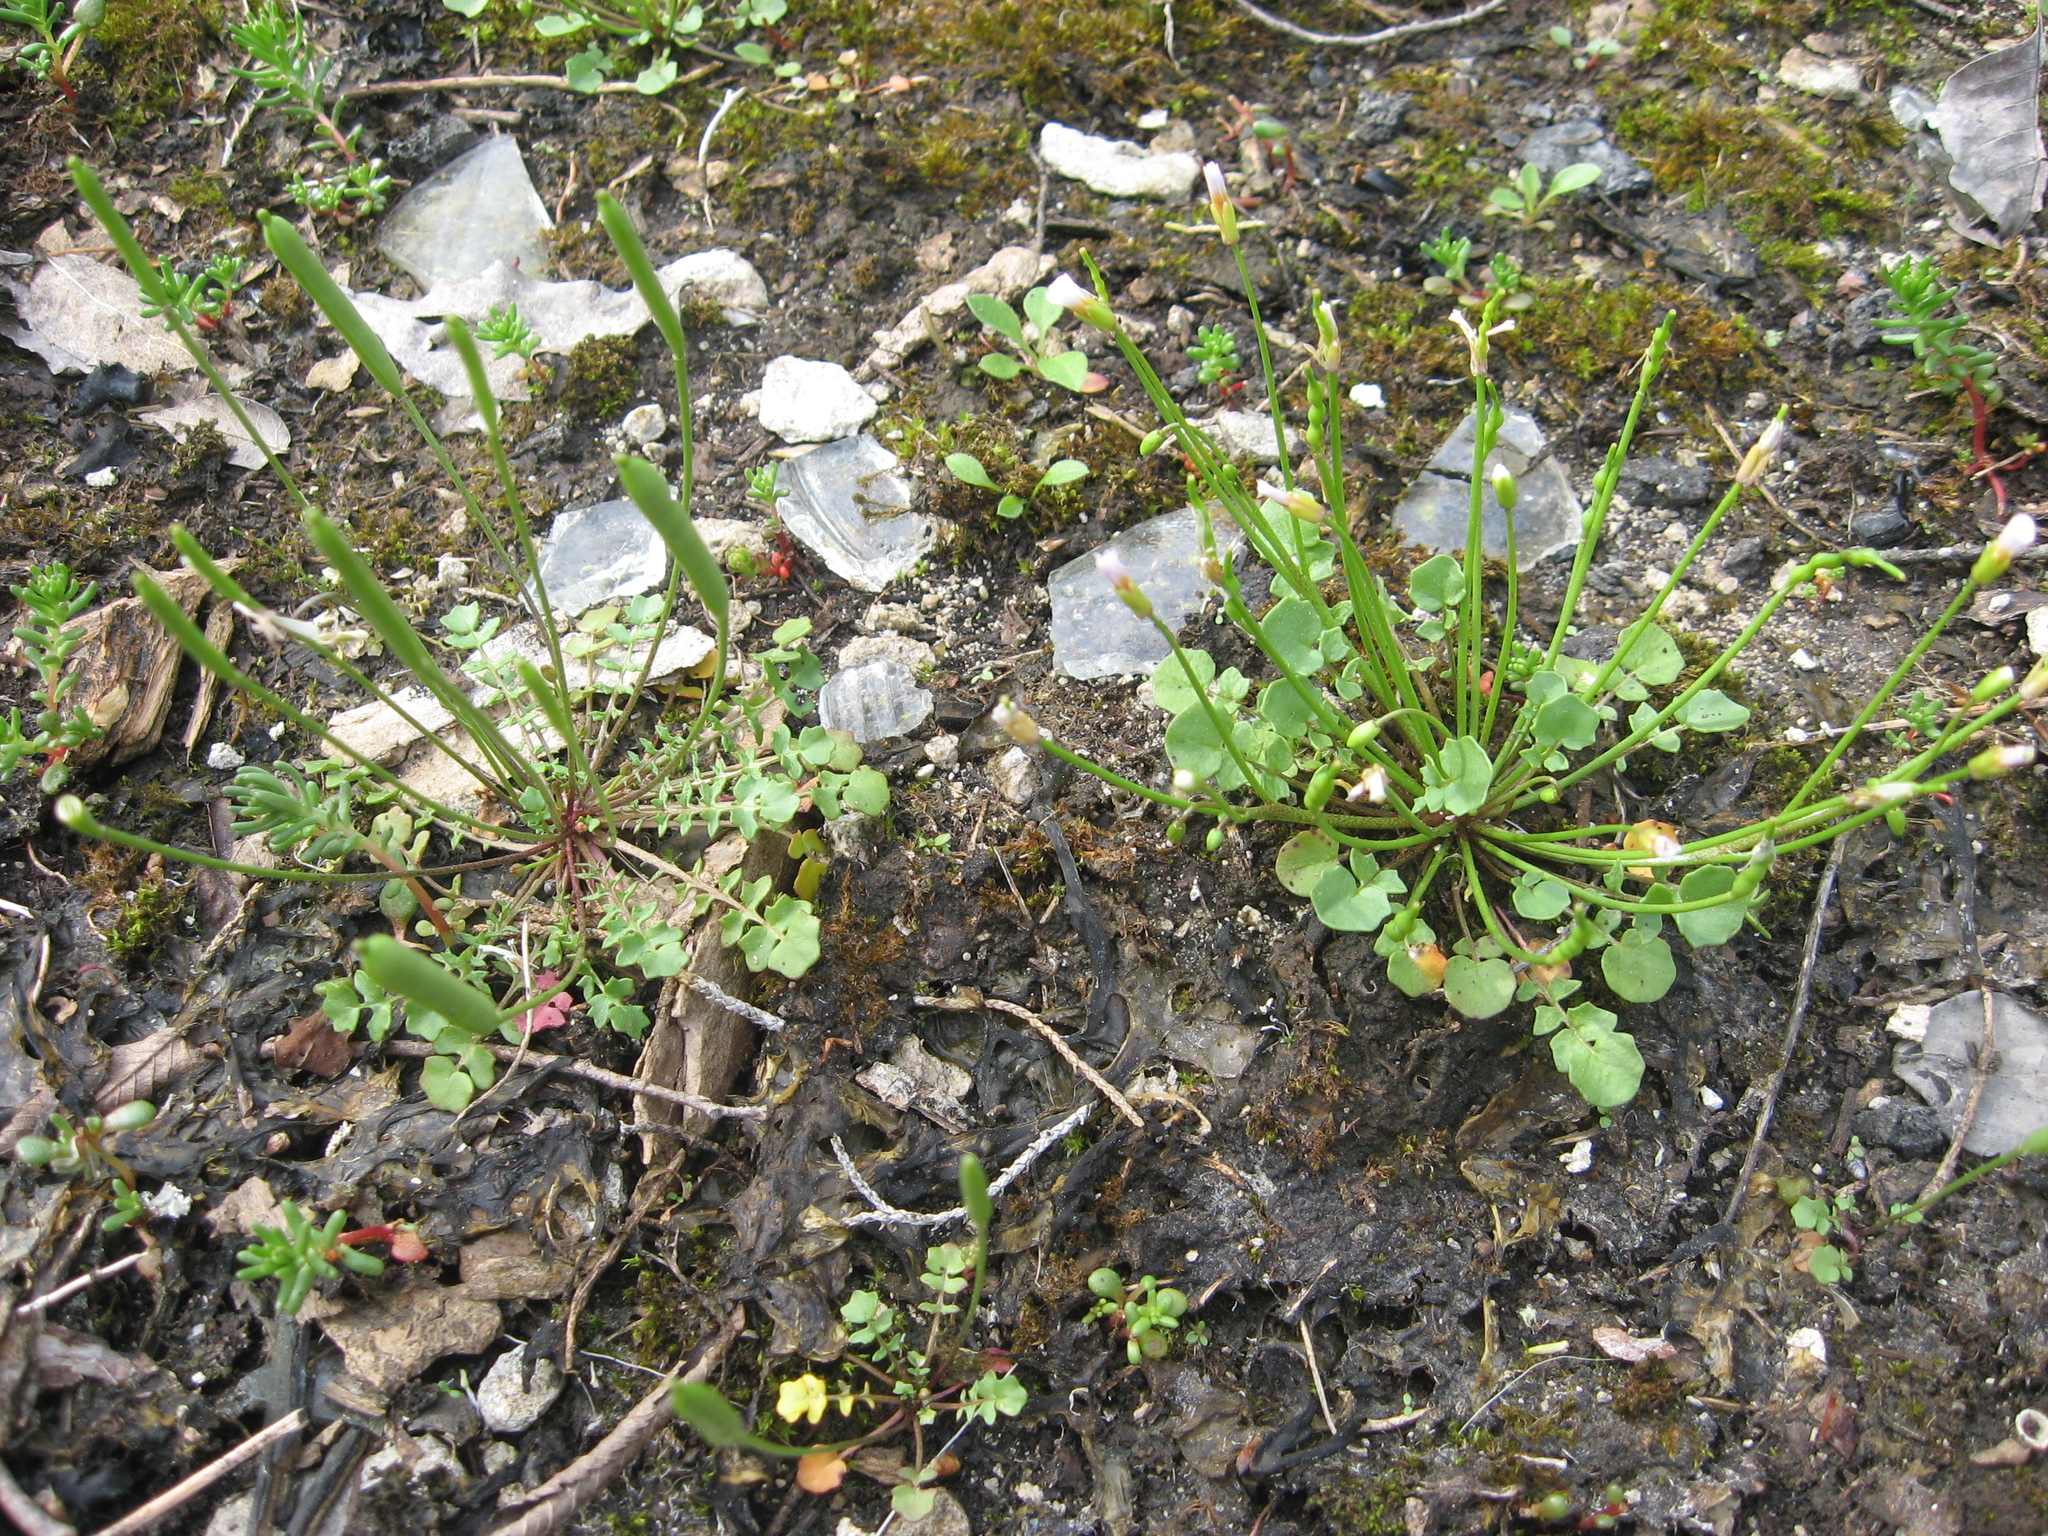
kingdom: Plantae
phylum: Tracheophyta
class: Magnoliopsida
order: Brassicales
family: Brassicaceae
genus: Leavenworthia
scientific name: Leavenworthia torulosa
